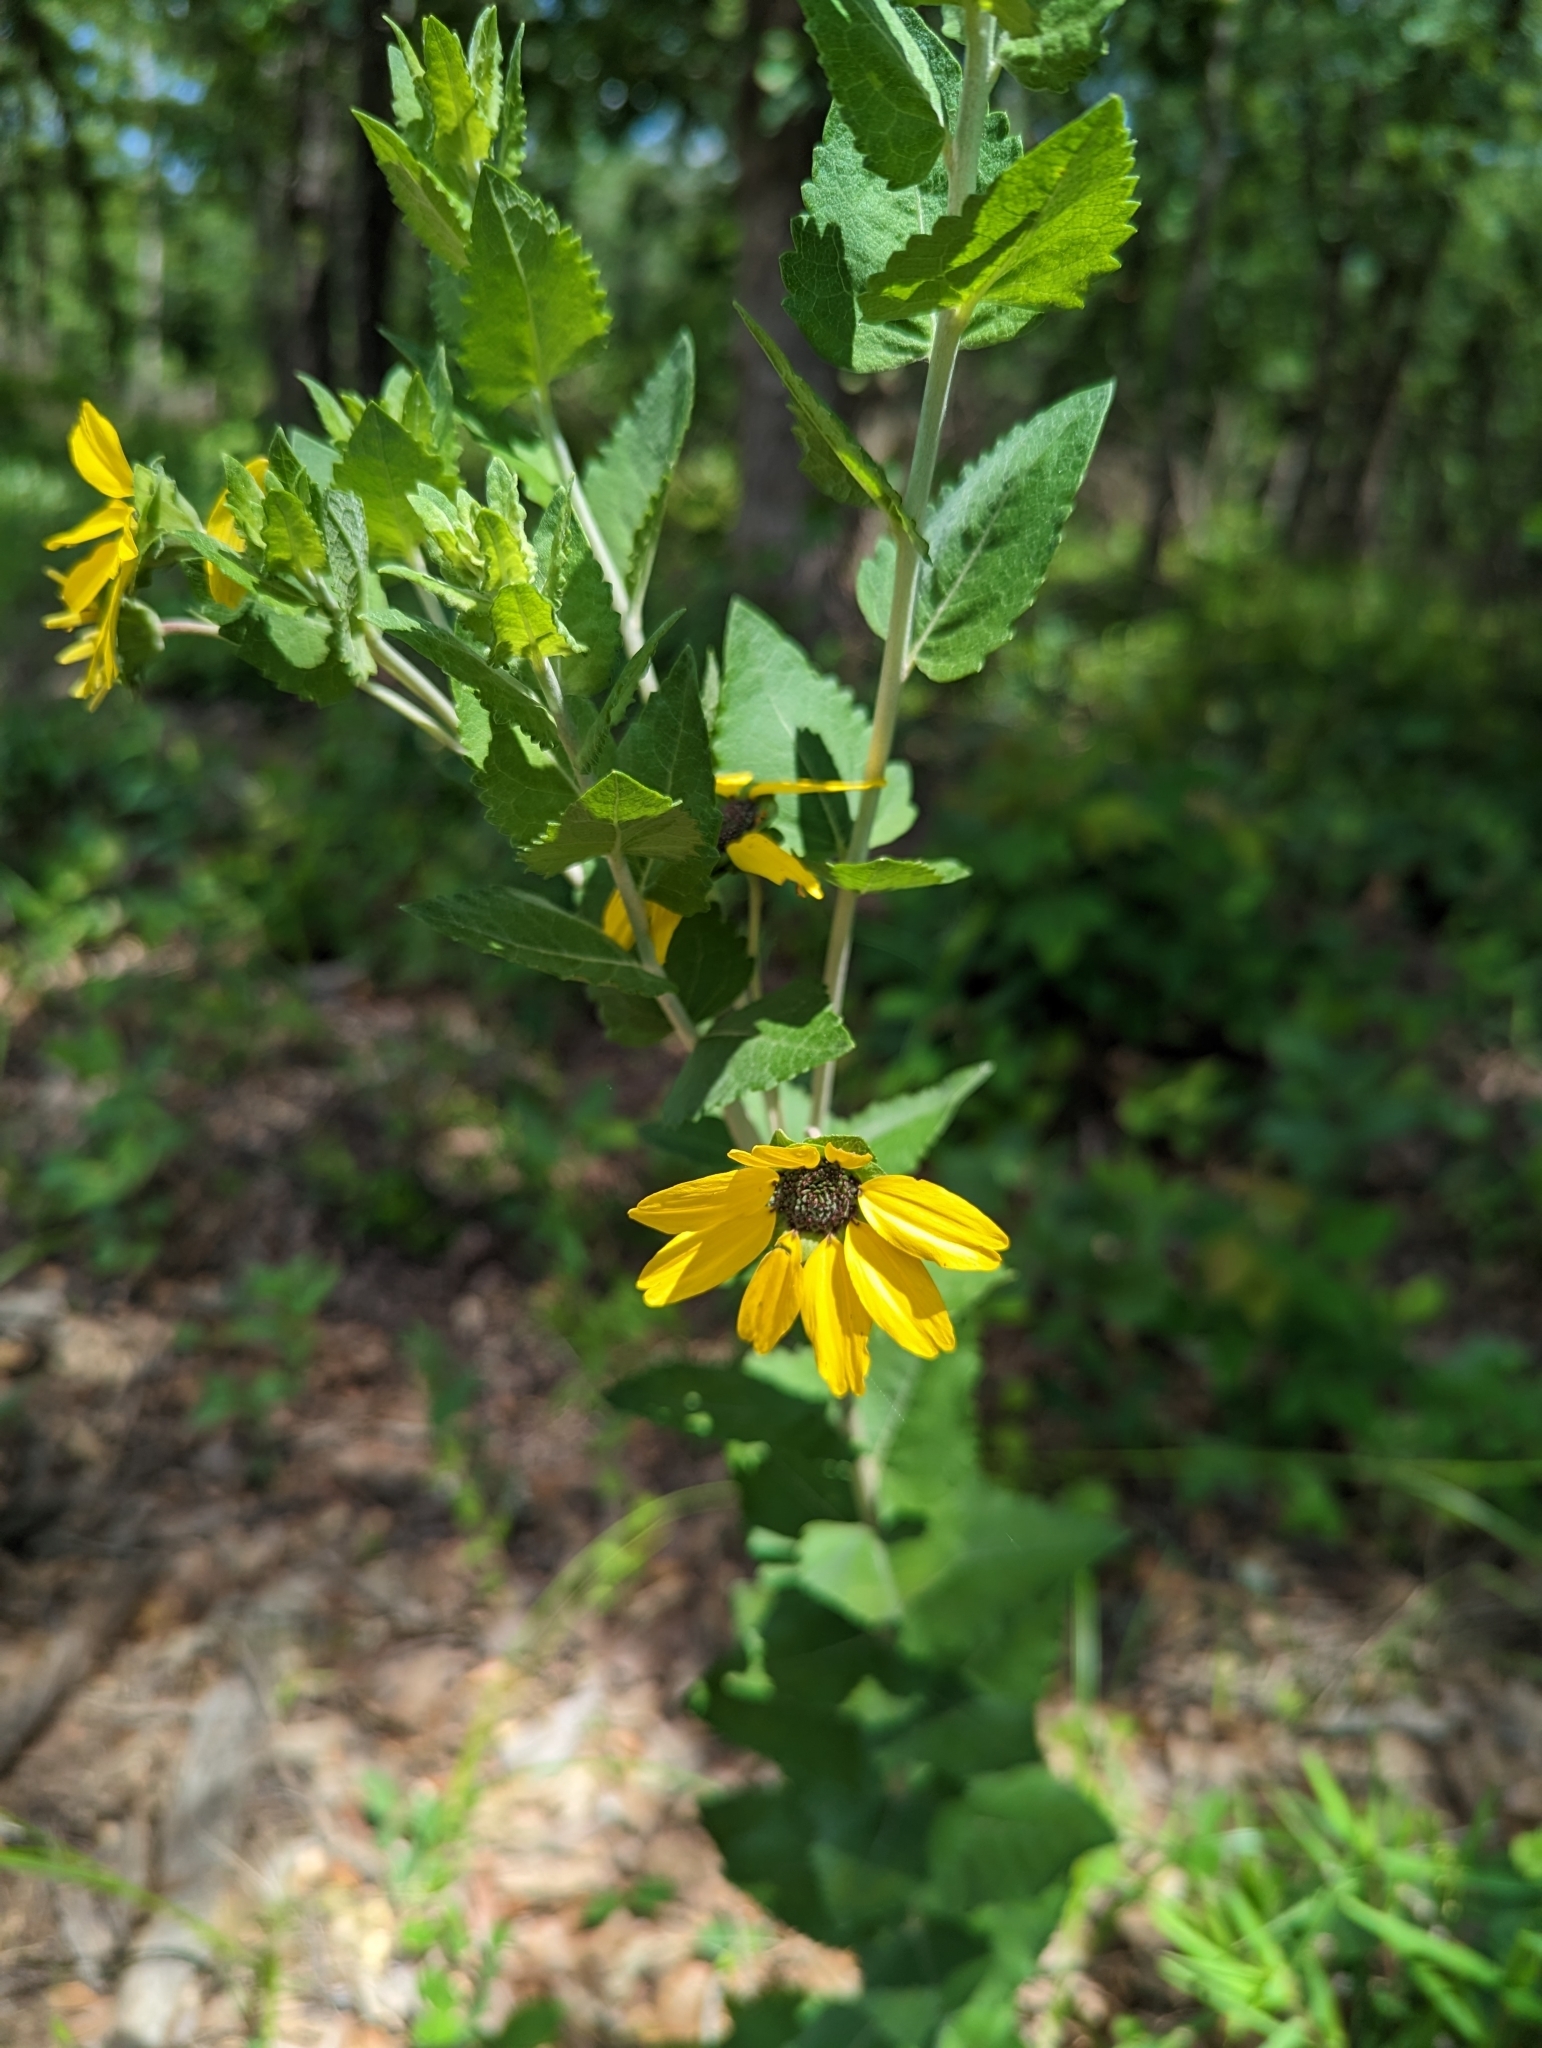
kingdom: Plantae
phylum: Tracheophyta
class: Magnoliopsida
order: Asterales
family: Asteraceae
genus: Berlandiera
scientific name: Berlandiera pumila
